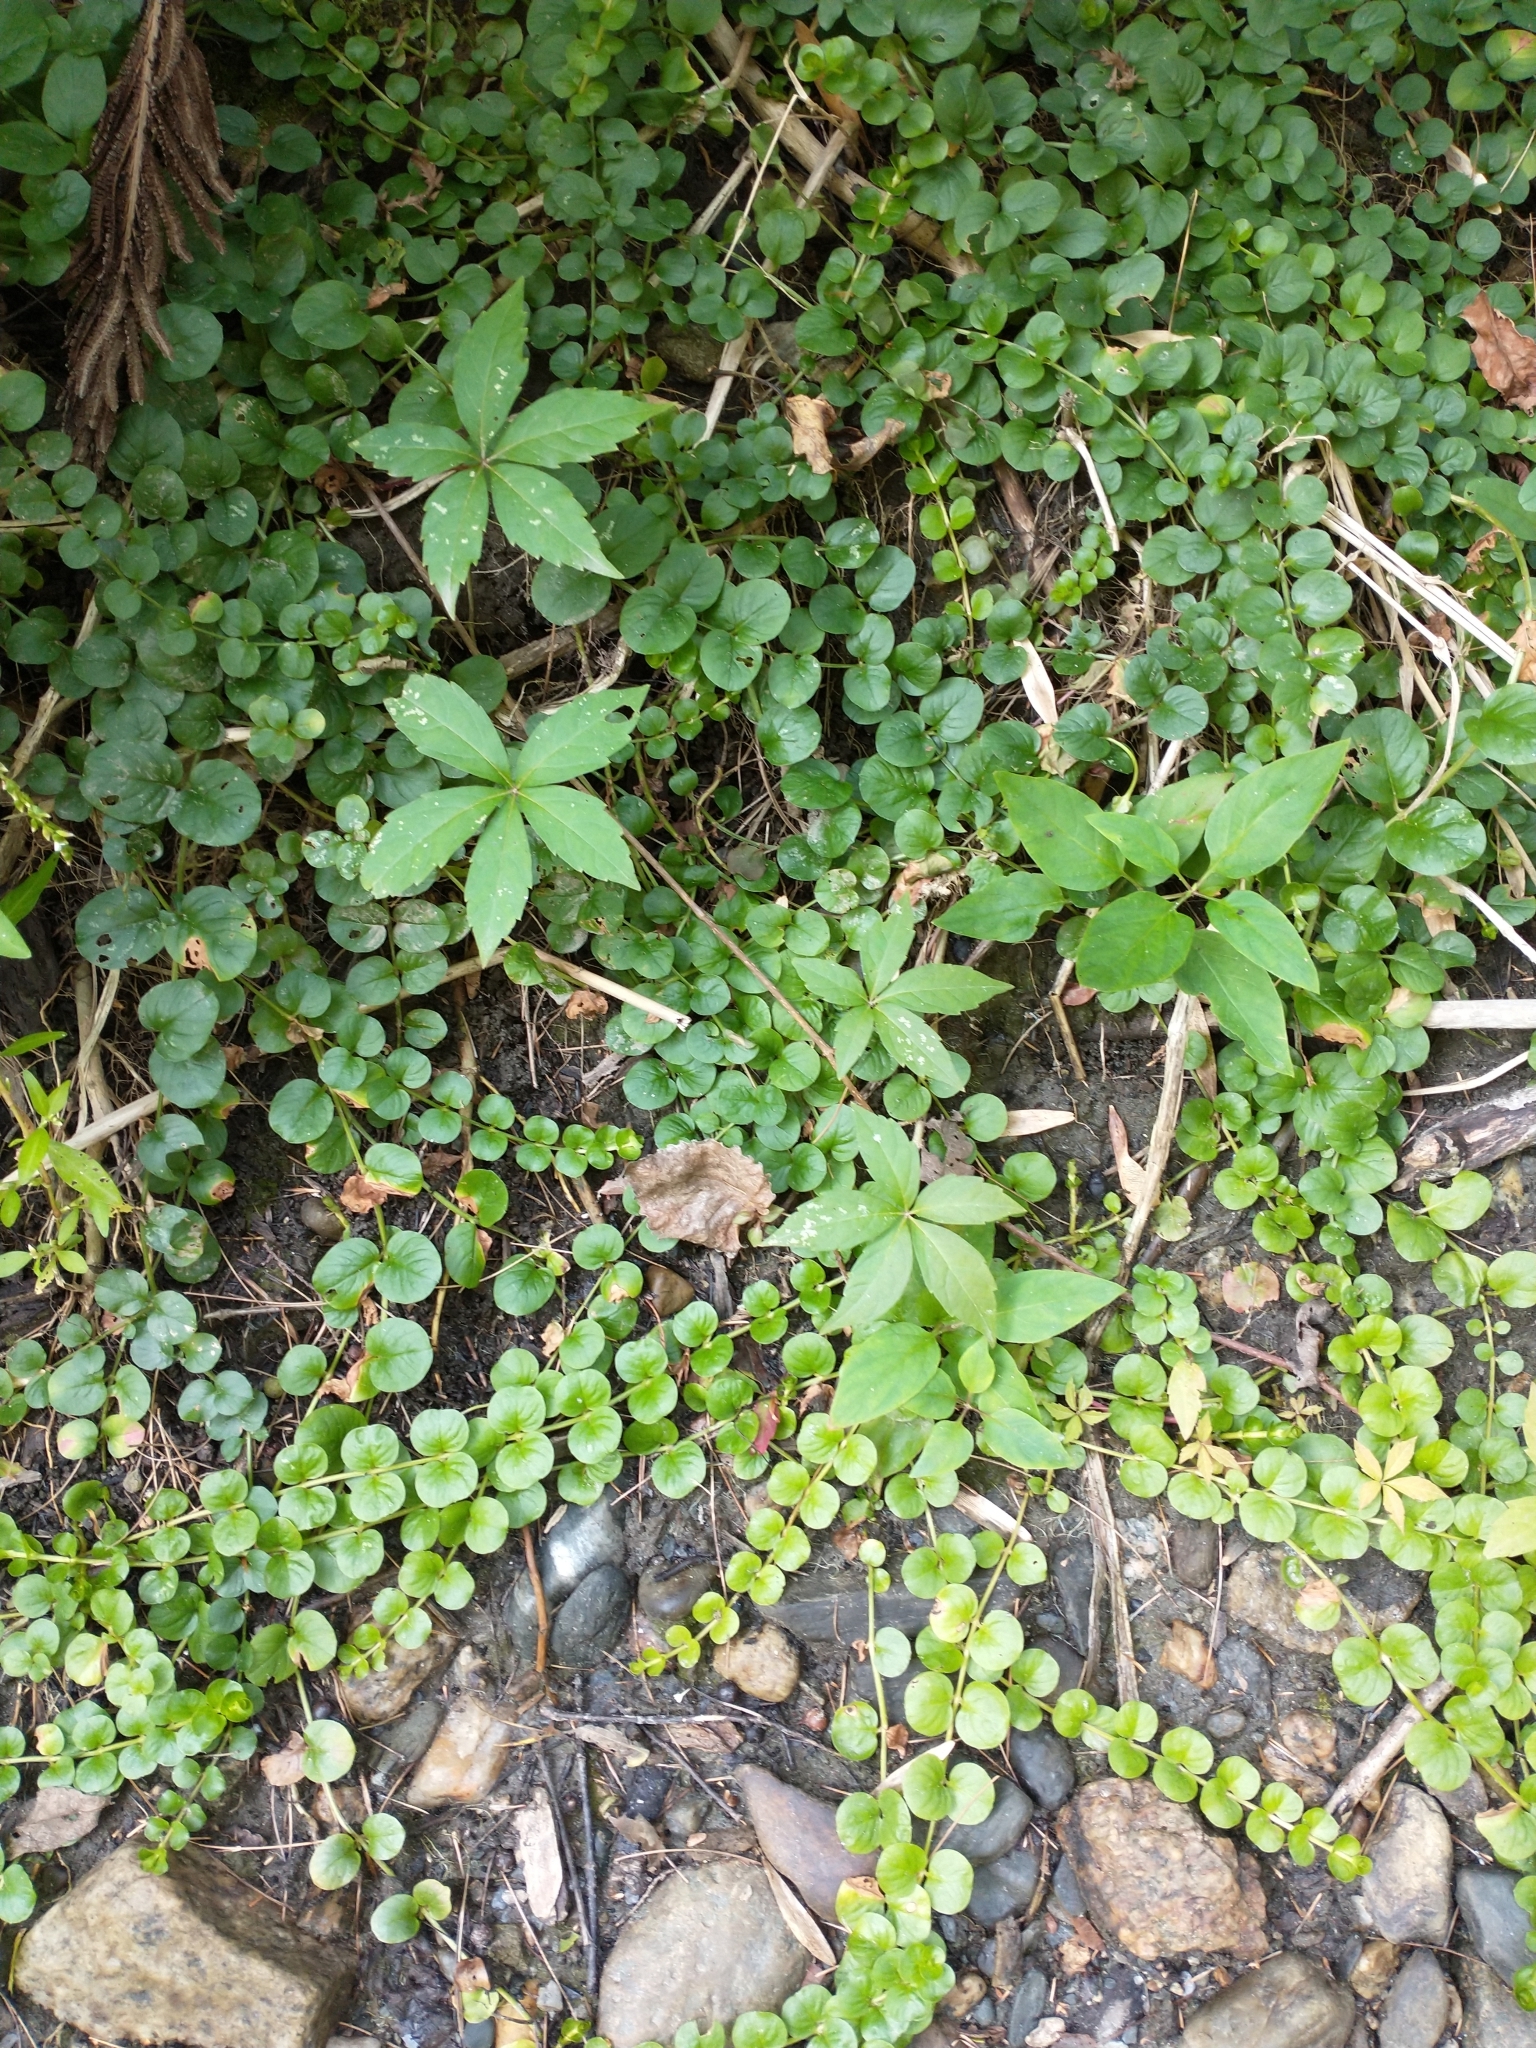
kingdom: Plantae
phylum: Tracheophyta
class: Magnoliopsida
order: Ericales
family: Primulaceae
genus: Lysimachia
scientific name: Lysimachia nummularia
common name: Moneywort
